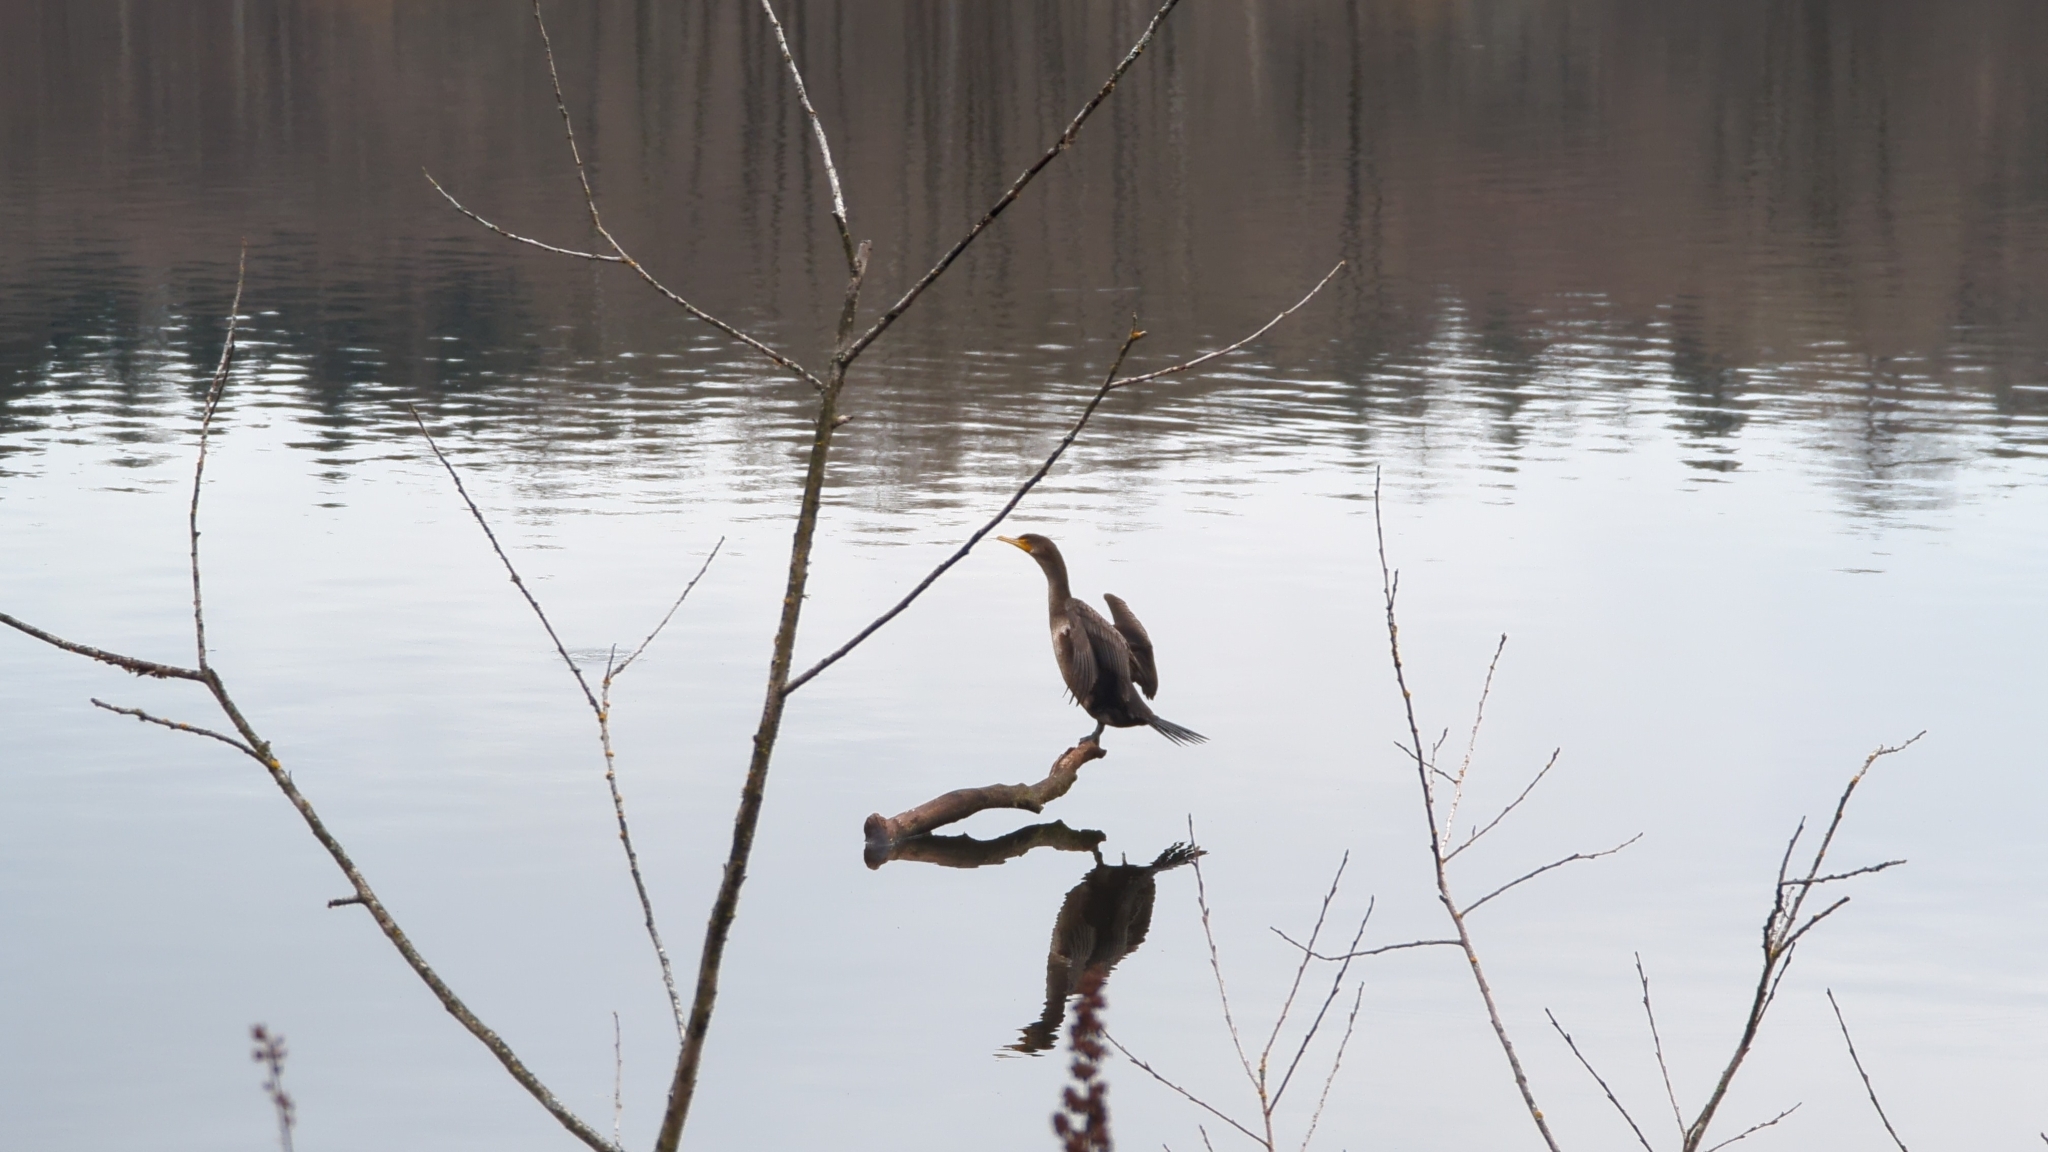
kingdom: Animalia
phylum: Chordata
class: Aves
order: Suliformes
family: Phalacrocoracidae
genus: Phalacrocorax
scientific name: Phalacrocorax auritus
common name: Double-crested cormorant
